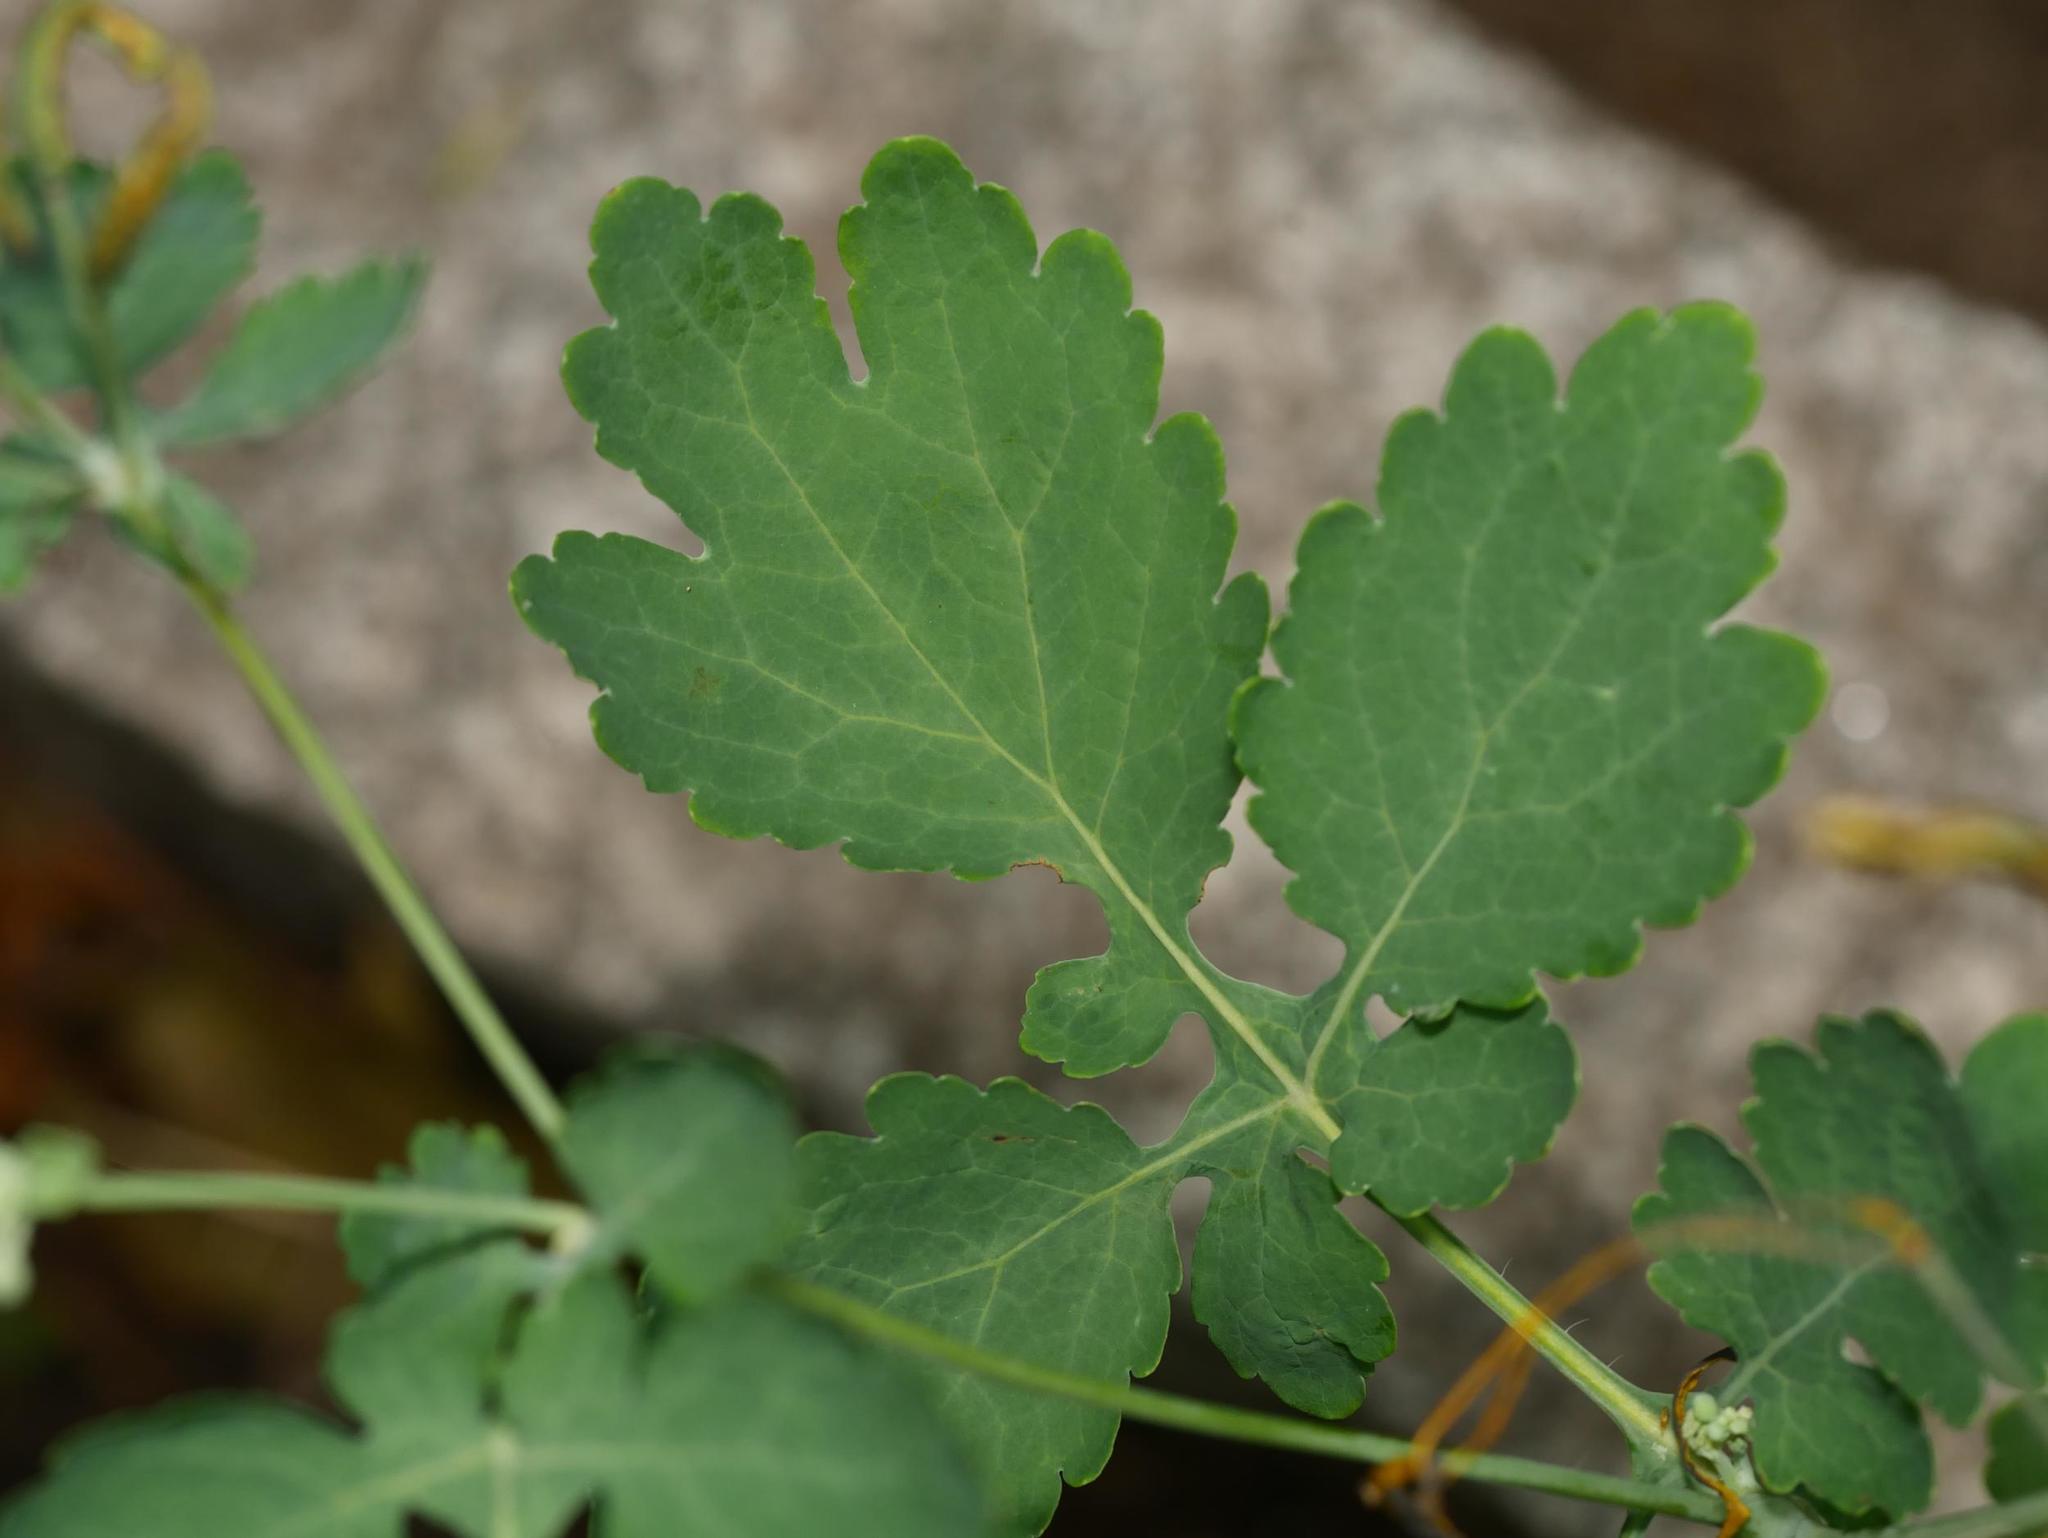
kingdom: Plantae
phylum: Tracheophyta
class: Magnoliopsida
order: Ranunculales
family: Papaveraceae
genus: Chelidonium
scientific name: Chelidonium majus
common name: Greater celandine
